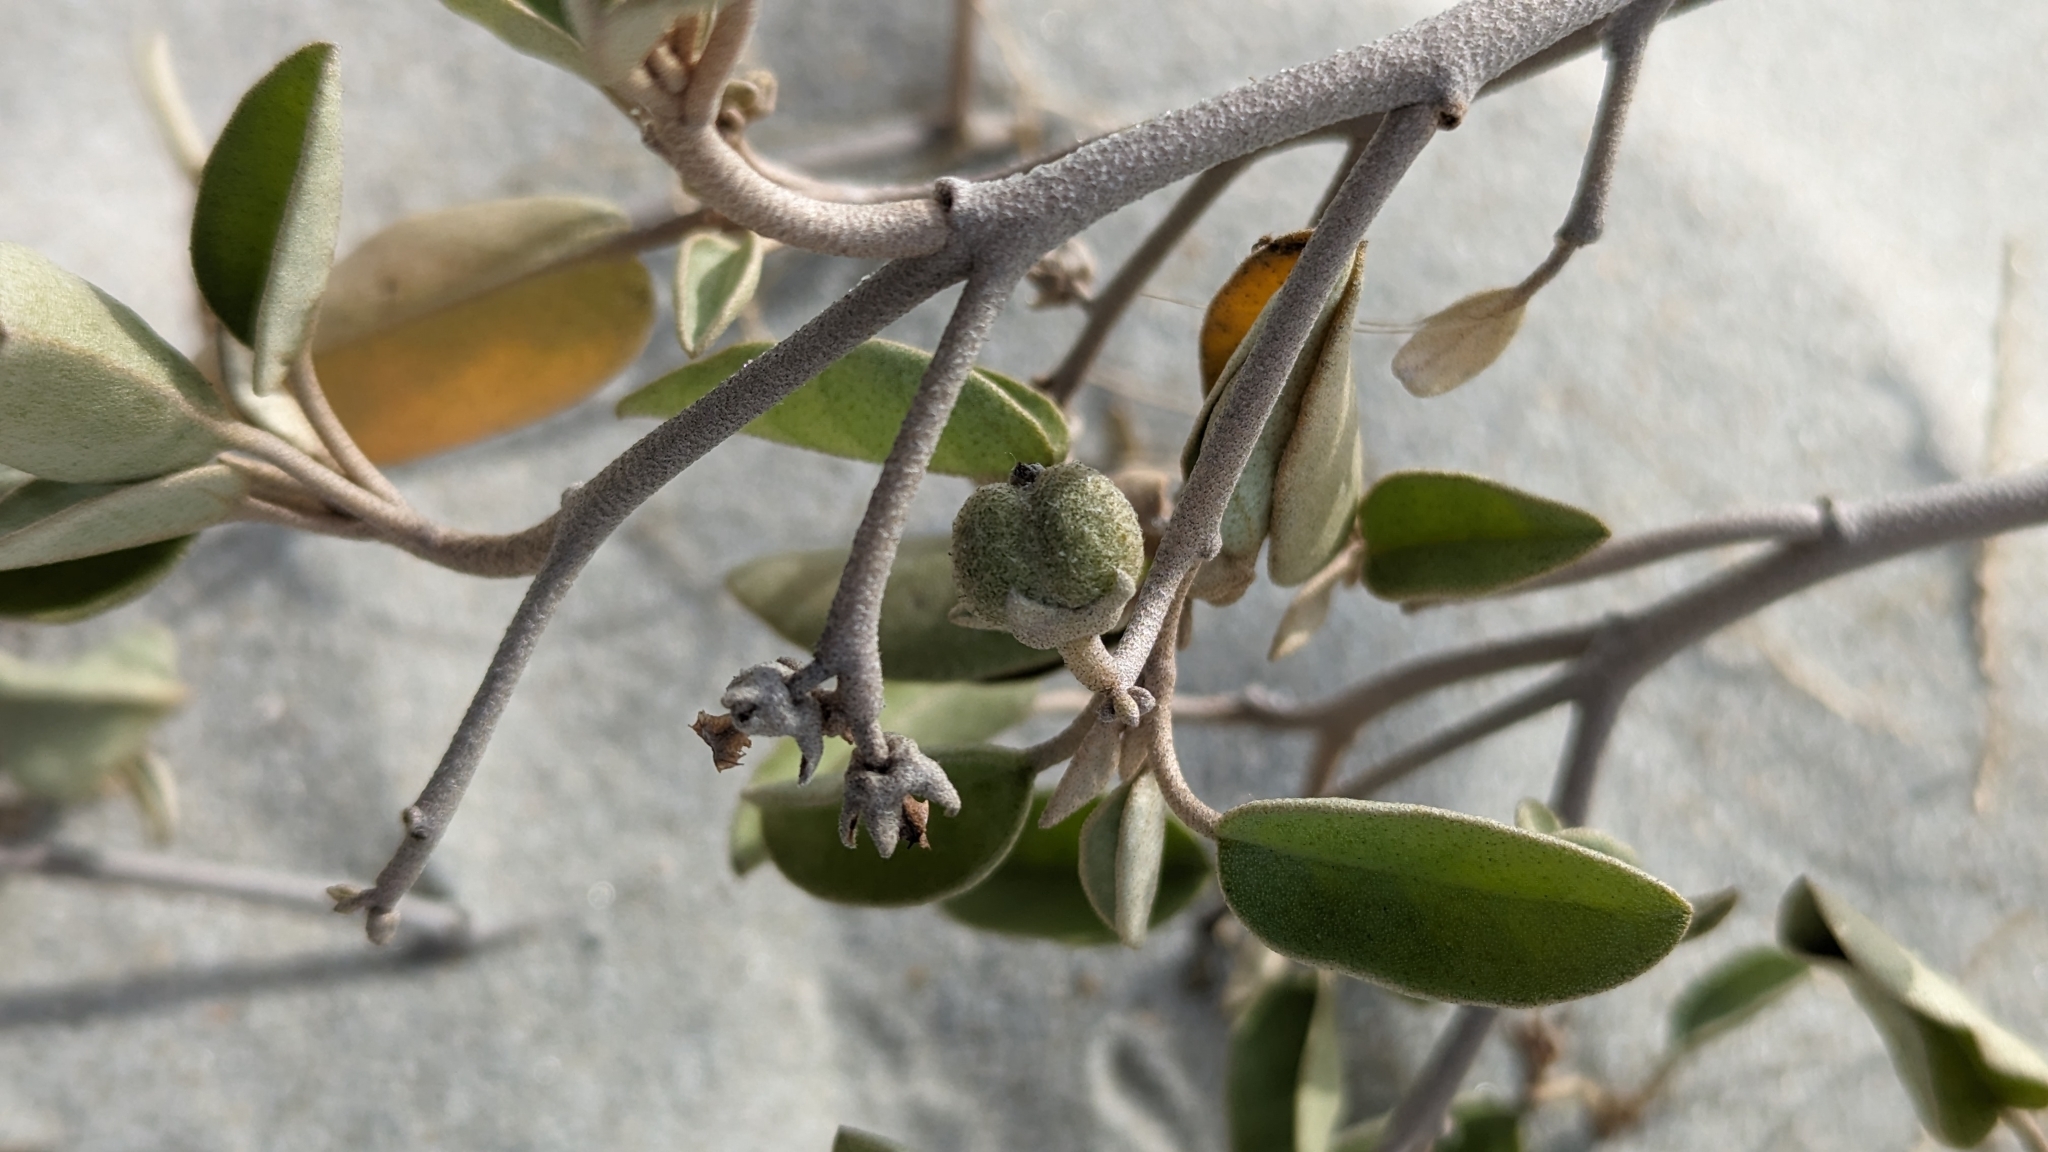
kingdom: Plantae
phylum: Tracheophyta
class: Magnoliopsida
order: Malpighiales
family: Euphorbiaceae
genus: Croton
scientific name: Croton punctatus
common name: Beach-tea
